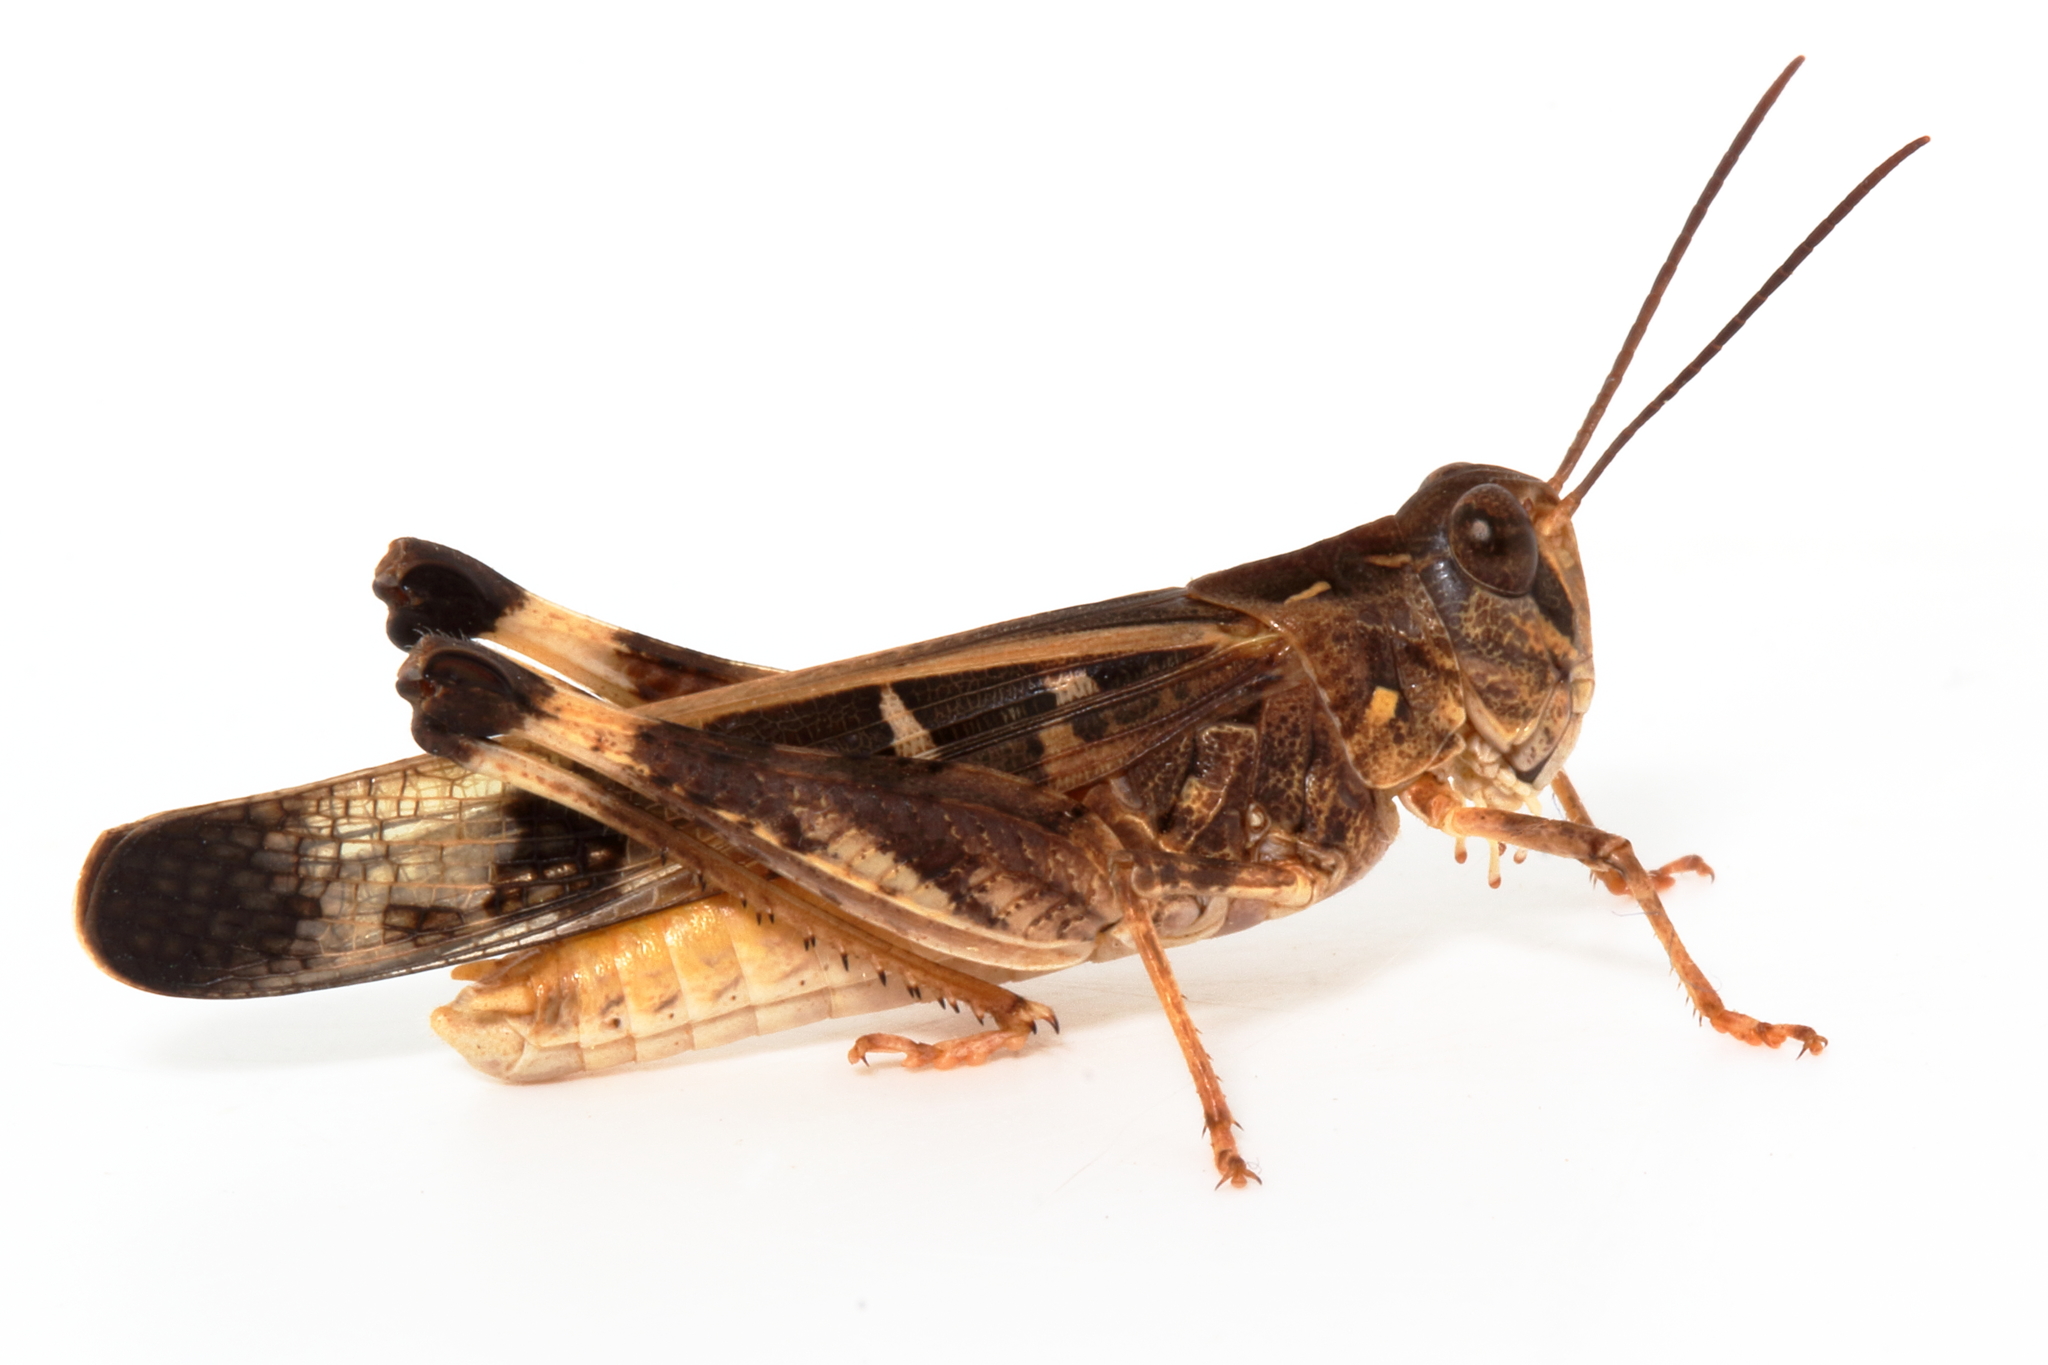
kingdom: Animalia
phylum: Arthropoda
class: Insecta
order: Orthoptera
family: Acrididae
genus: Oedaleus
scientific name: Oedaleus australis
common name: Eastern oedaleus
